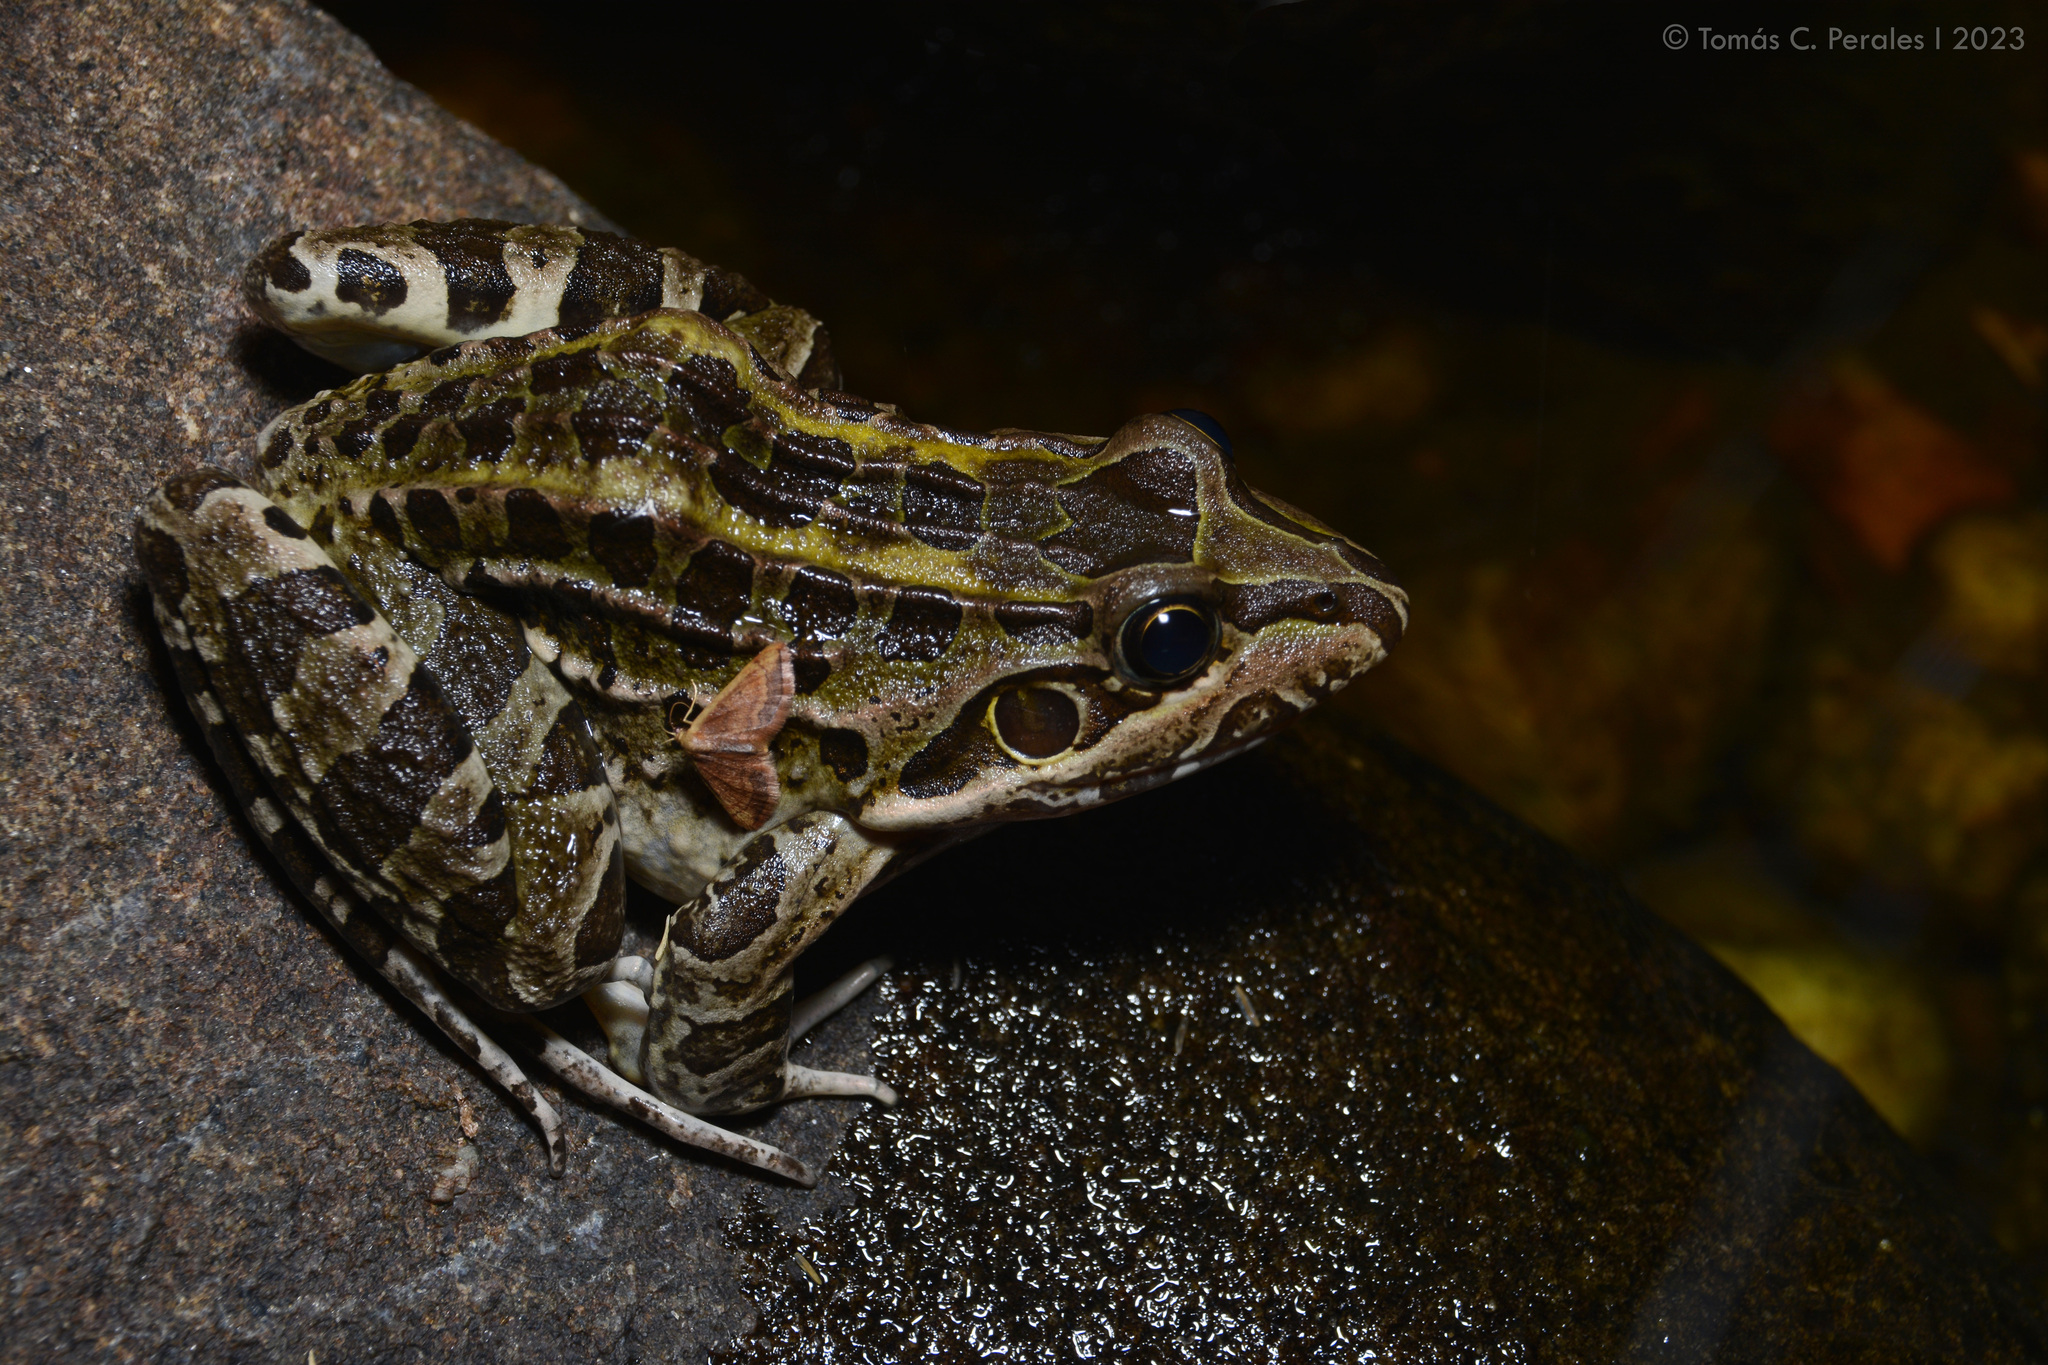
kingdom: Animalia
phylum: Chordata
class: Amphibia
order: Anura
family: Leptodactylidae
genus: Leptodactylus
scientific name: Leptodactylus luctator
